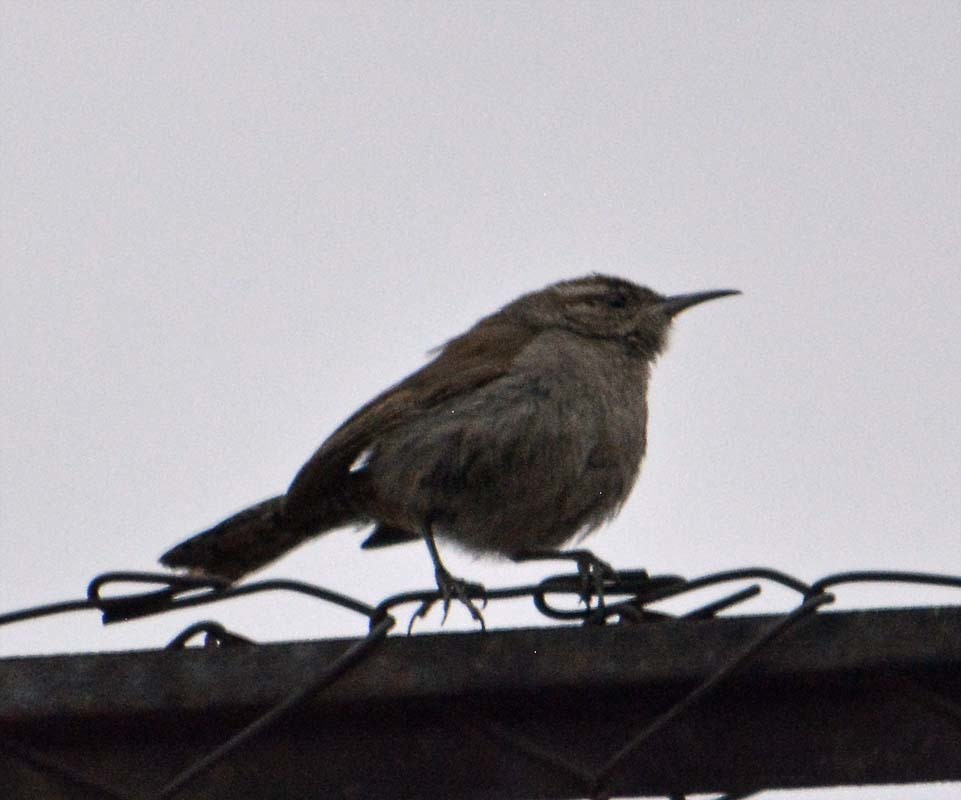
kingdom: Animalia
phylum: Chordata
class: Aves
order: Passeriformes
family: Troglodytidae
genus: Thryomanes
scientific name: Thryomanes bewickii
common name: Bewick's wren
